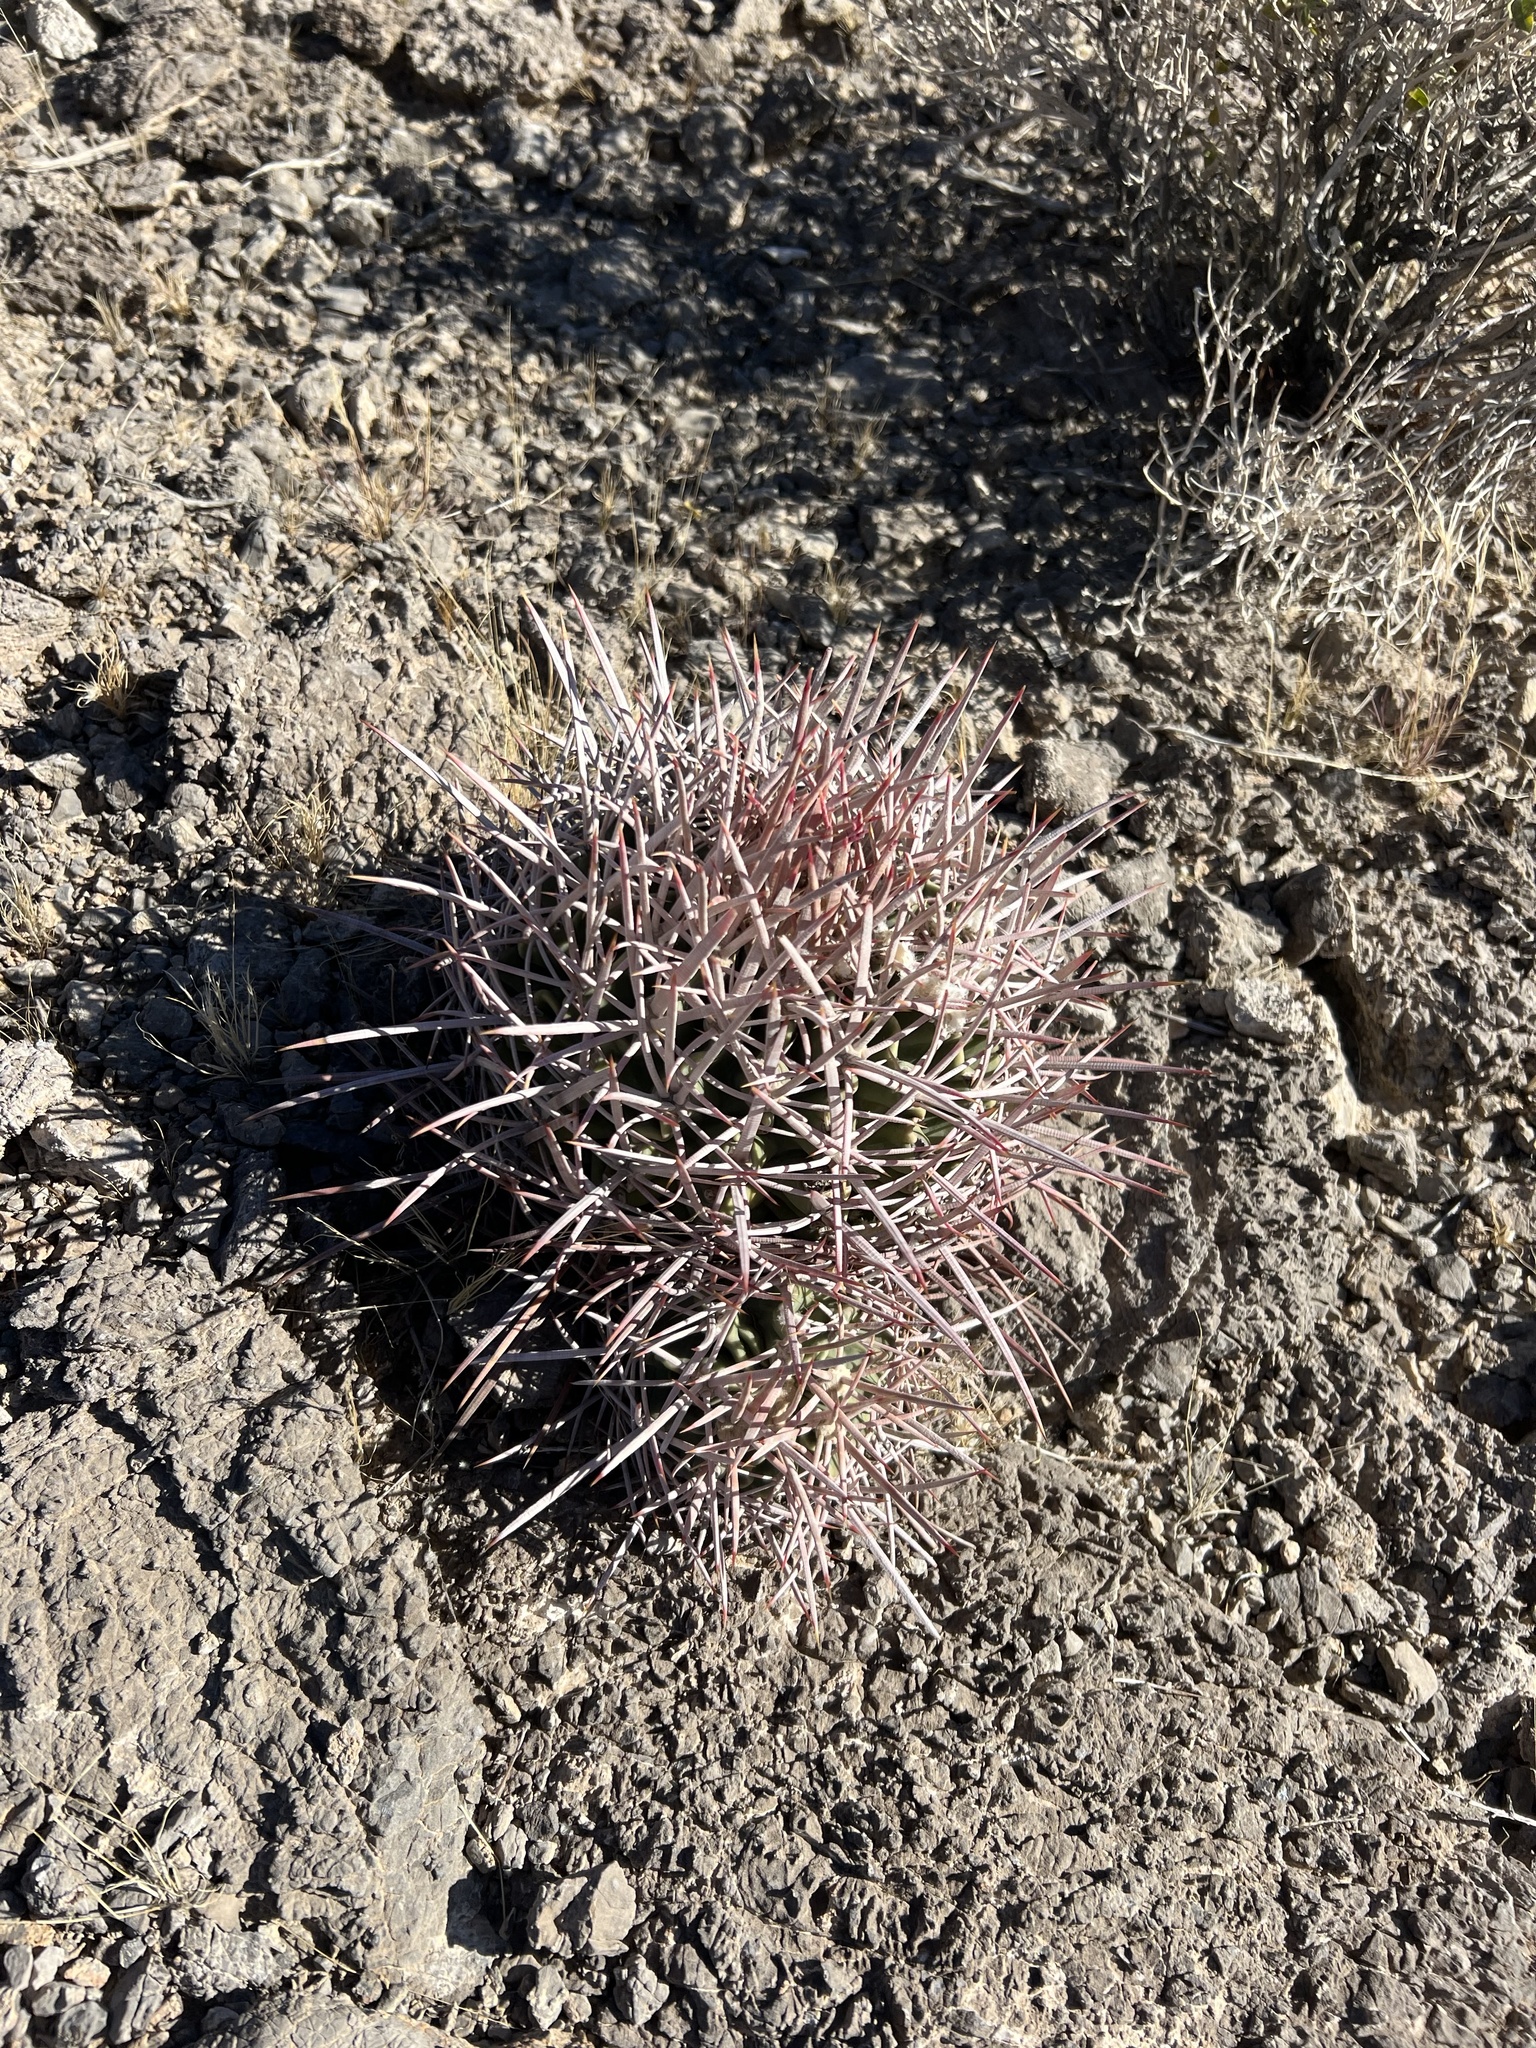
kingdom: Plantae
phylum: Tracheophyta
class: Magnoliopsida
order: Caryophyllales
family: Cactaceae
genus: Echinocactus
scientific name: Echinocactus polycephalus
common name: Cottontop cactus
